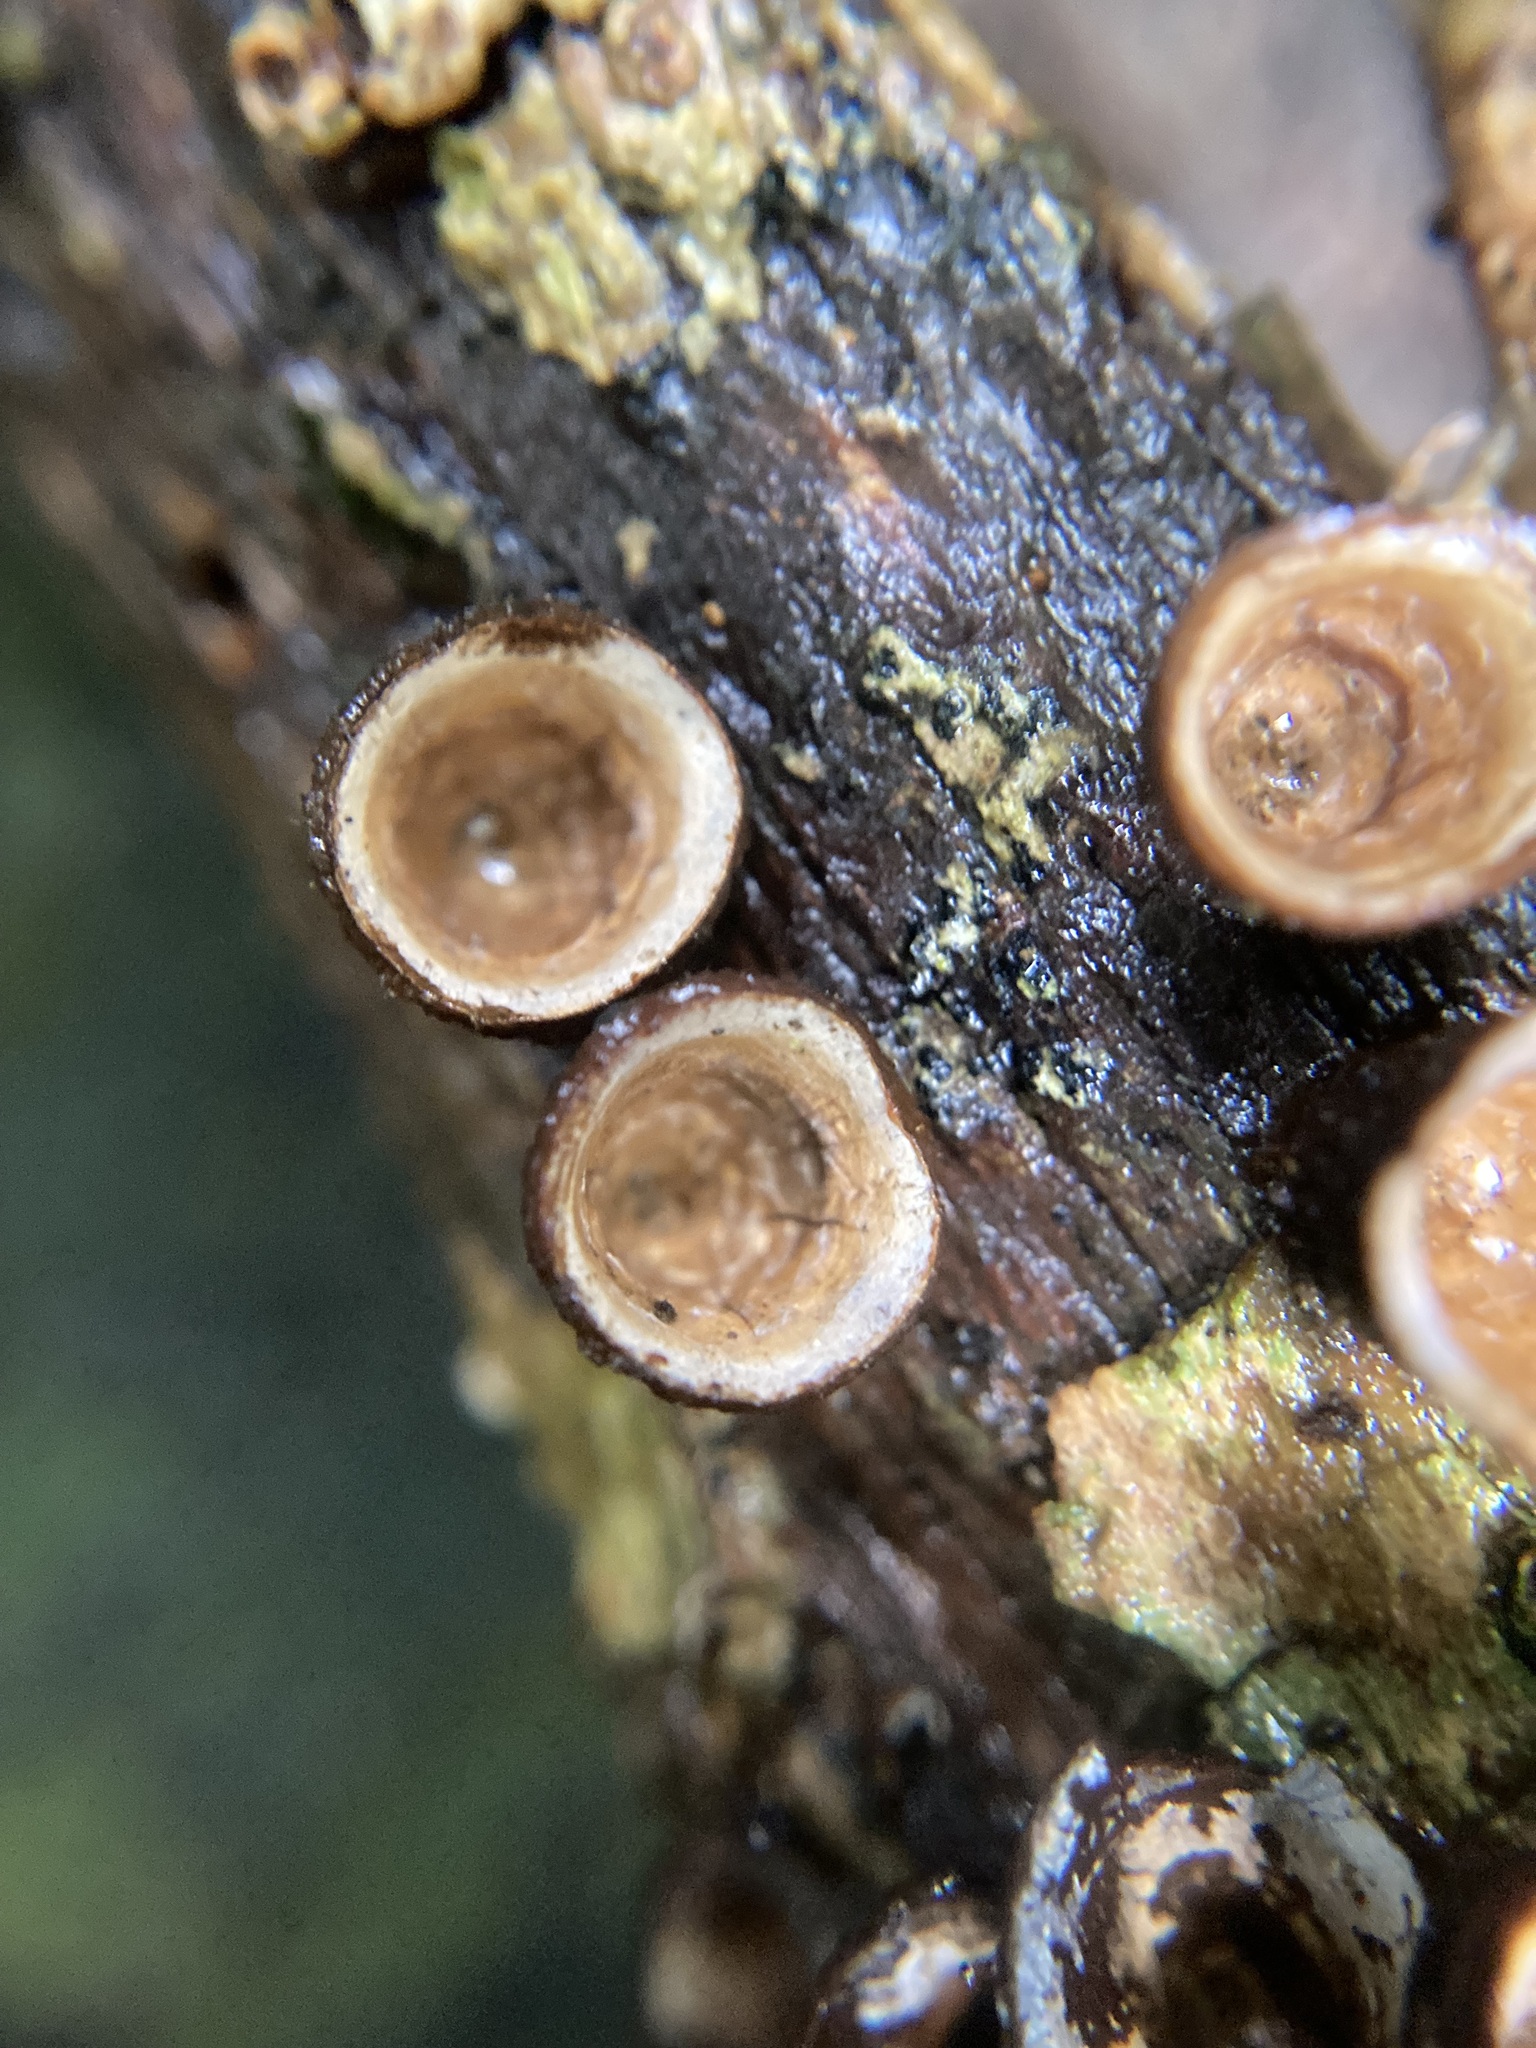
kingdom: Fungi
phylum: Basidiomycota
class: Agaricomycetes
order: Agaricales
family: Nidulariaceae
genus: Crucibulum
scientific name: Crucibulum simile
